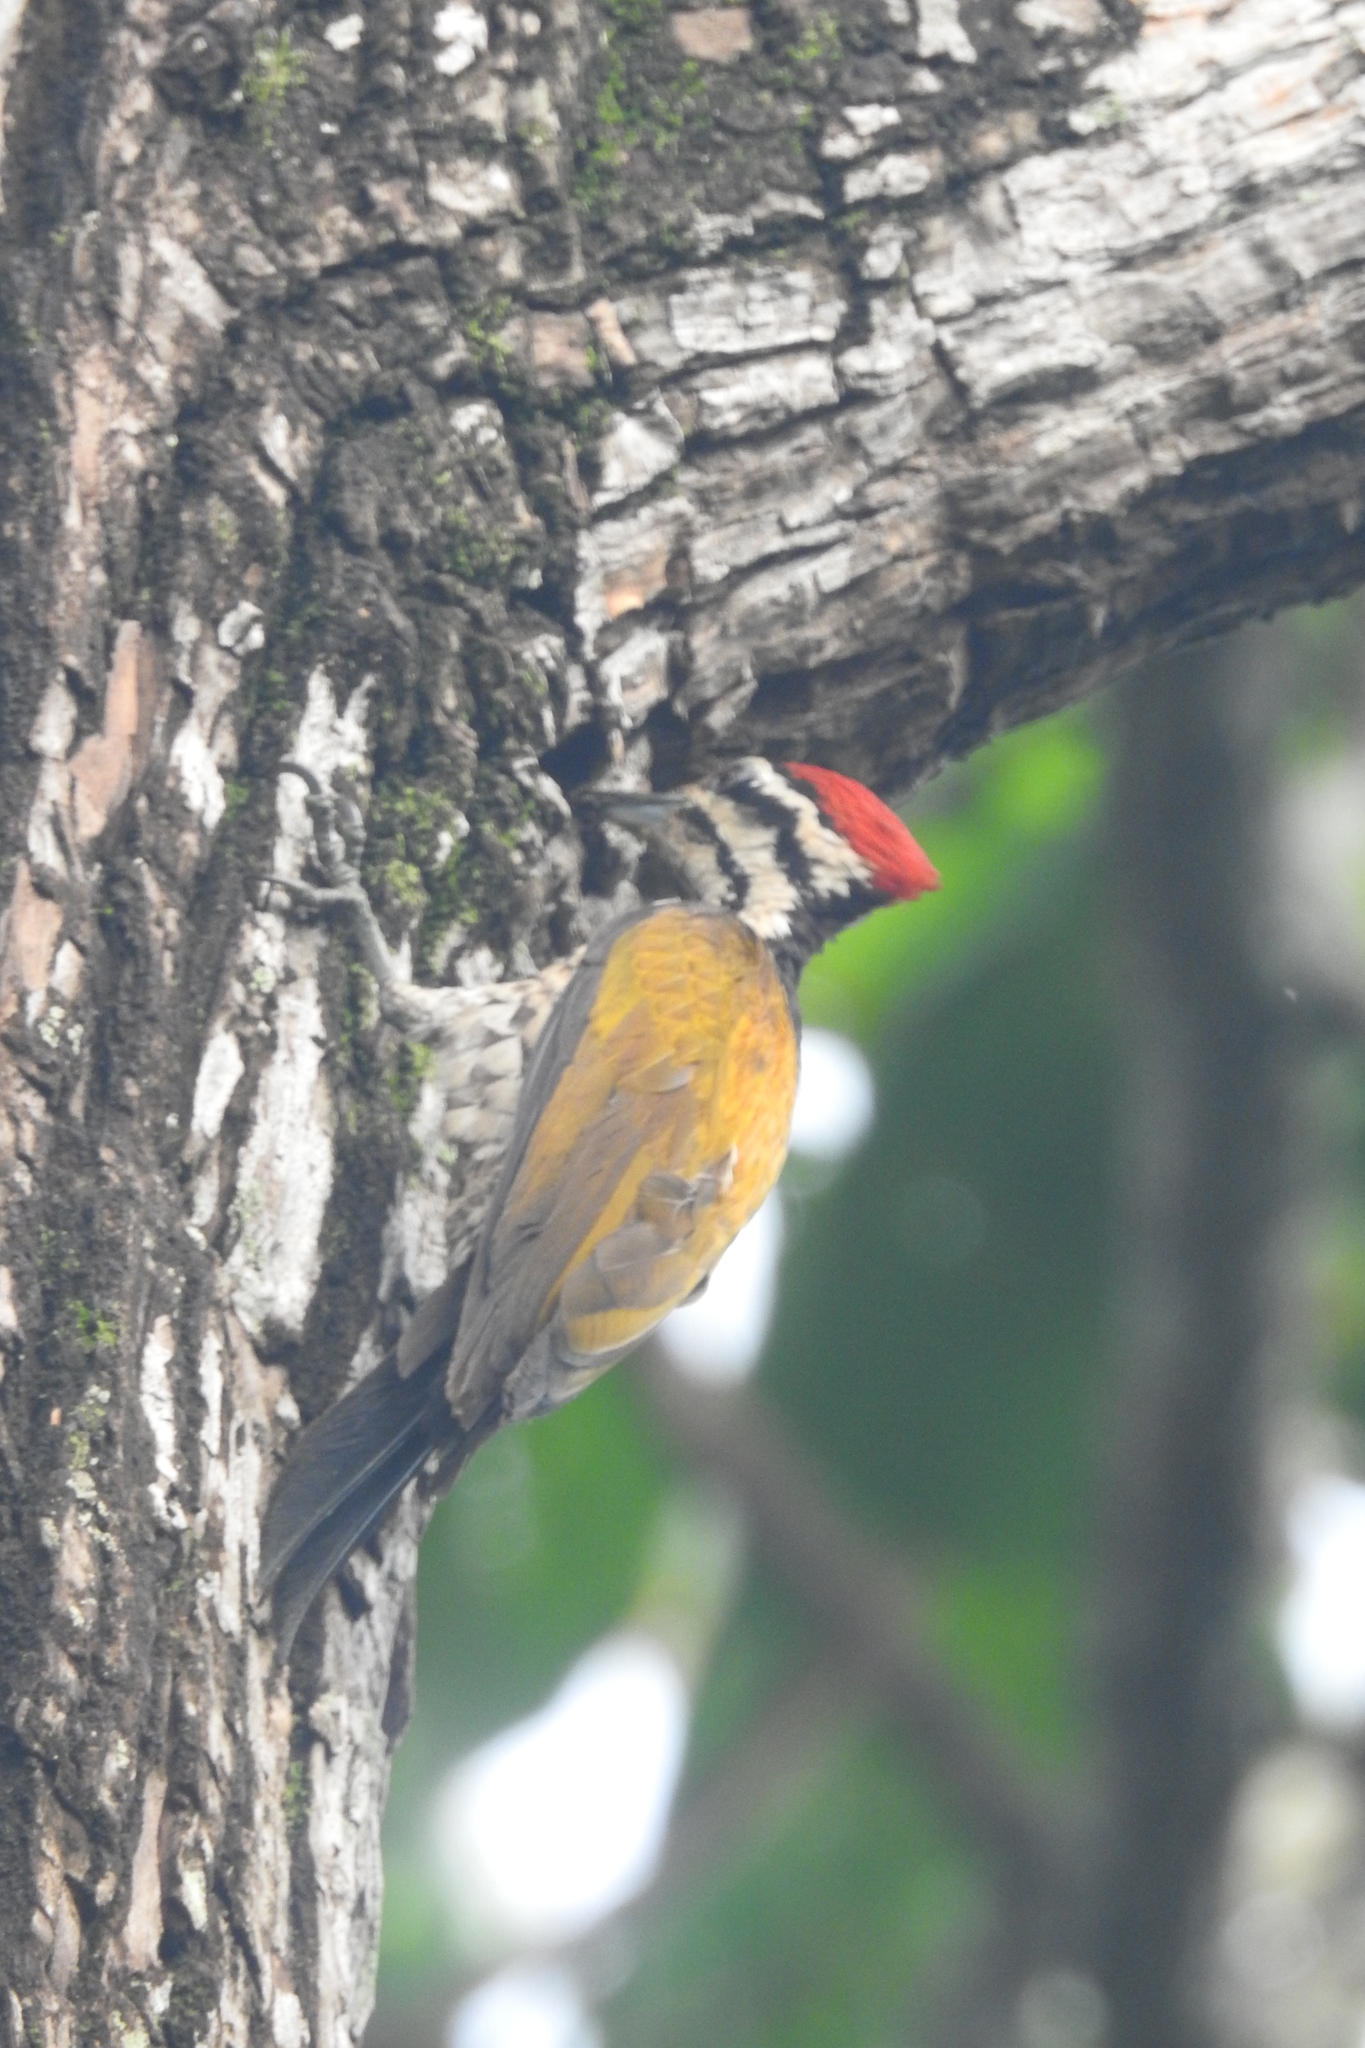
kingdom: Animalia
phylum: Chordata
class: Aves
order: Piciformes
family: Picidae
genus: Dinopium
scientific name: Dinopium javanense
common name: Common flameback
